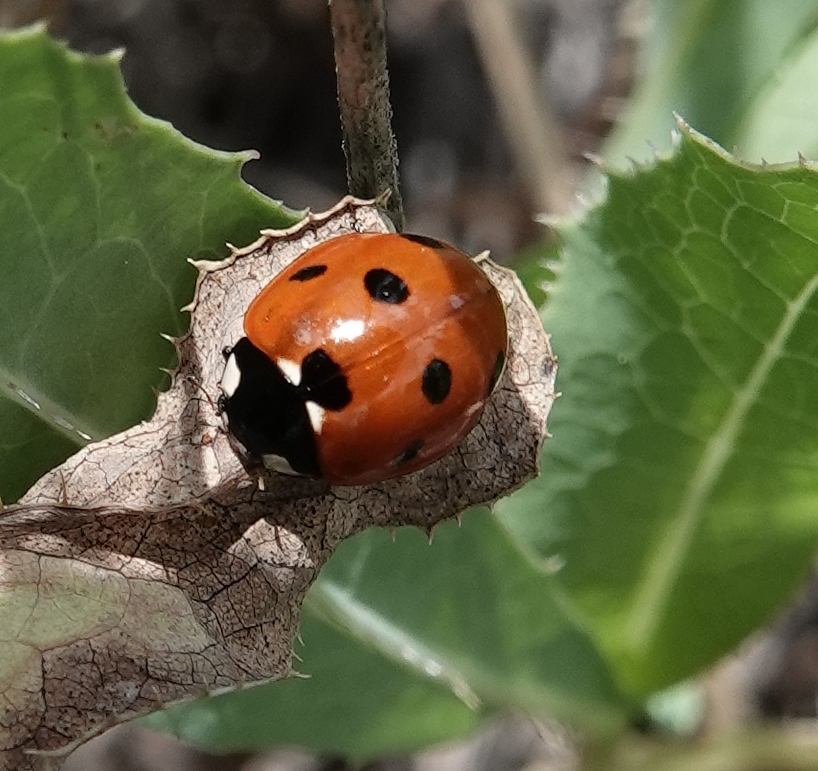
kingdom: Animalia
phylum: Arthropoda
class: Insecta
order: Coleoptera
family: Coccinellidae
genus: Coccinella
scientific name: Coccinella septempunctata
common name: Sevenspotted lady beetle
